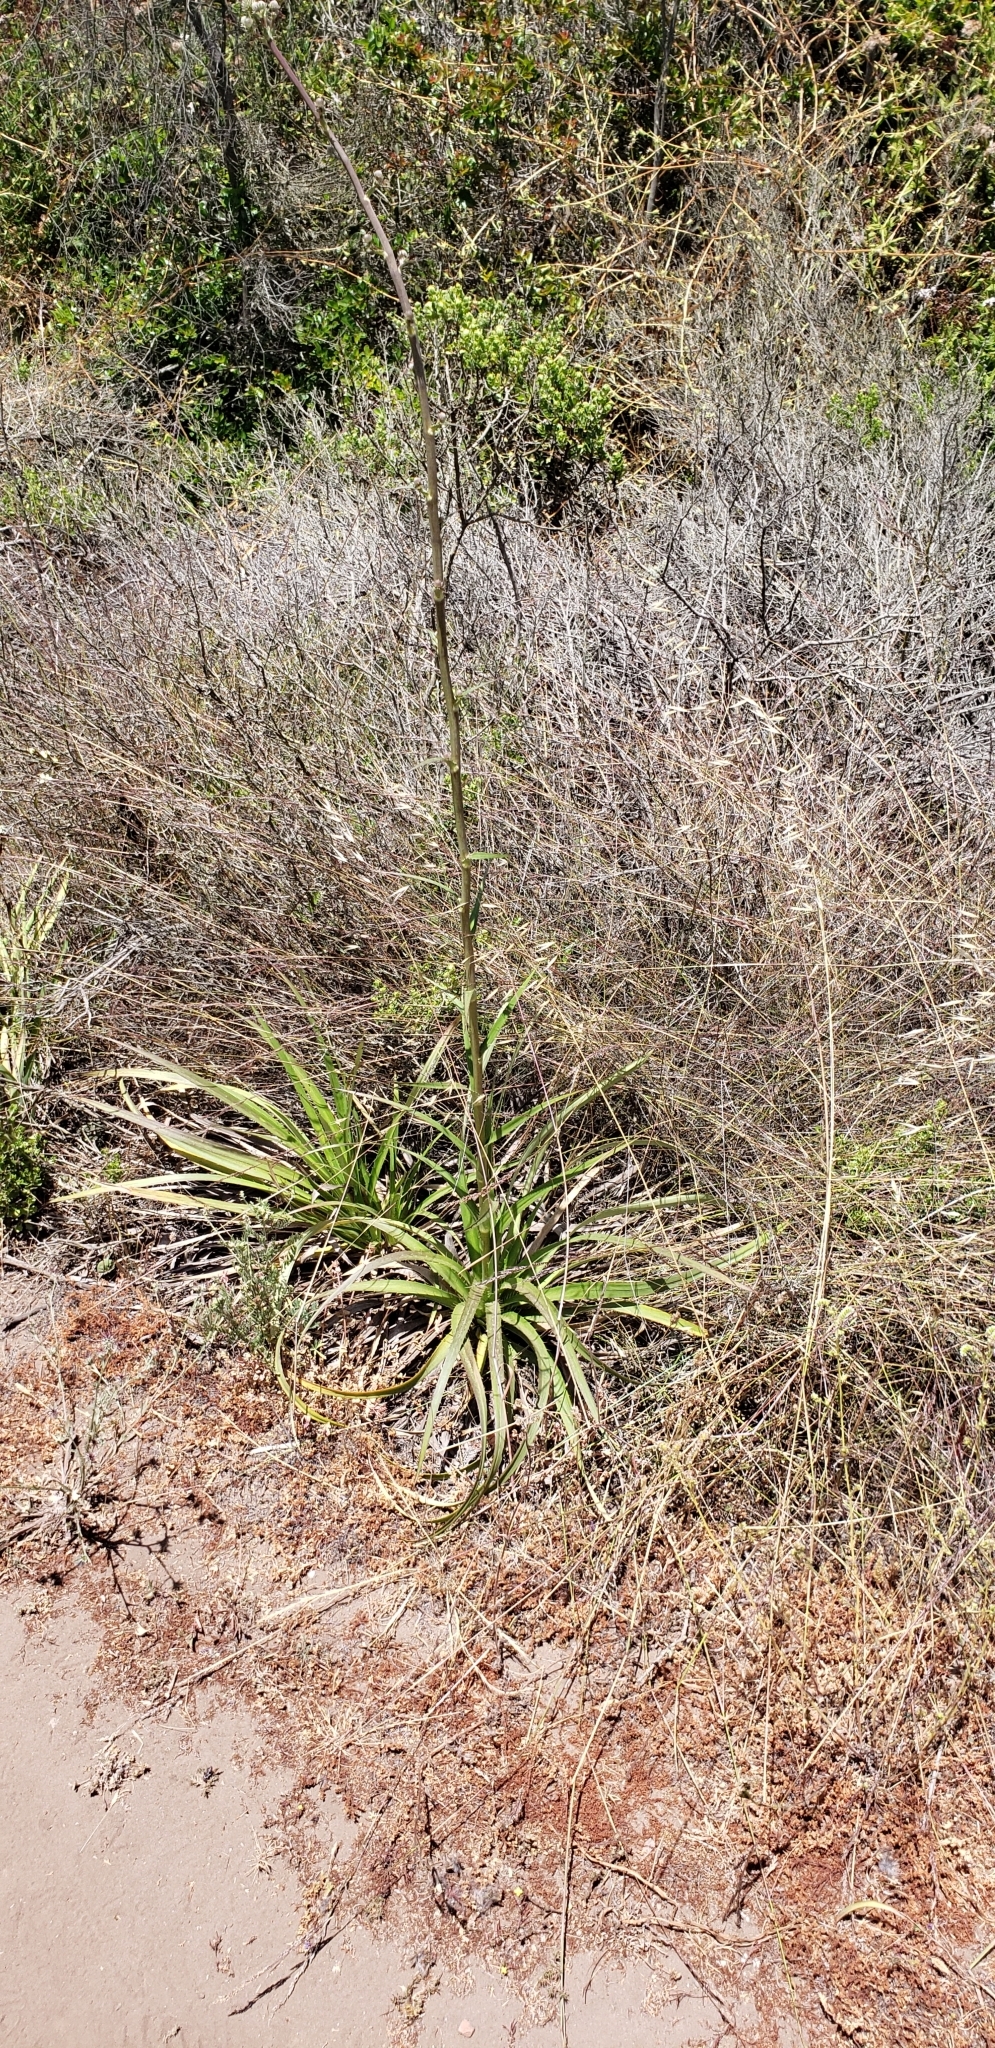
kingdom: Plantae
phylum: Tracheophyta
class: Magnoliopsida
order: Apiales
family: Apiaceae
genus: Eryngium
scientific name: Eryngium humboldtii
